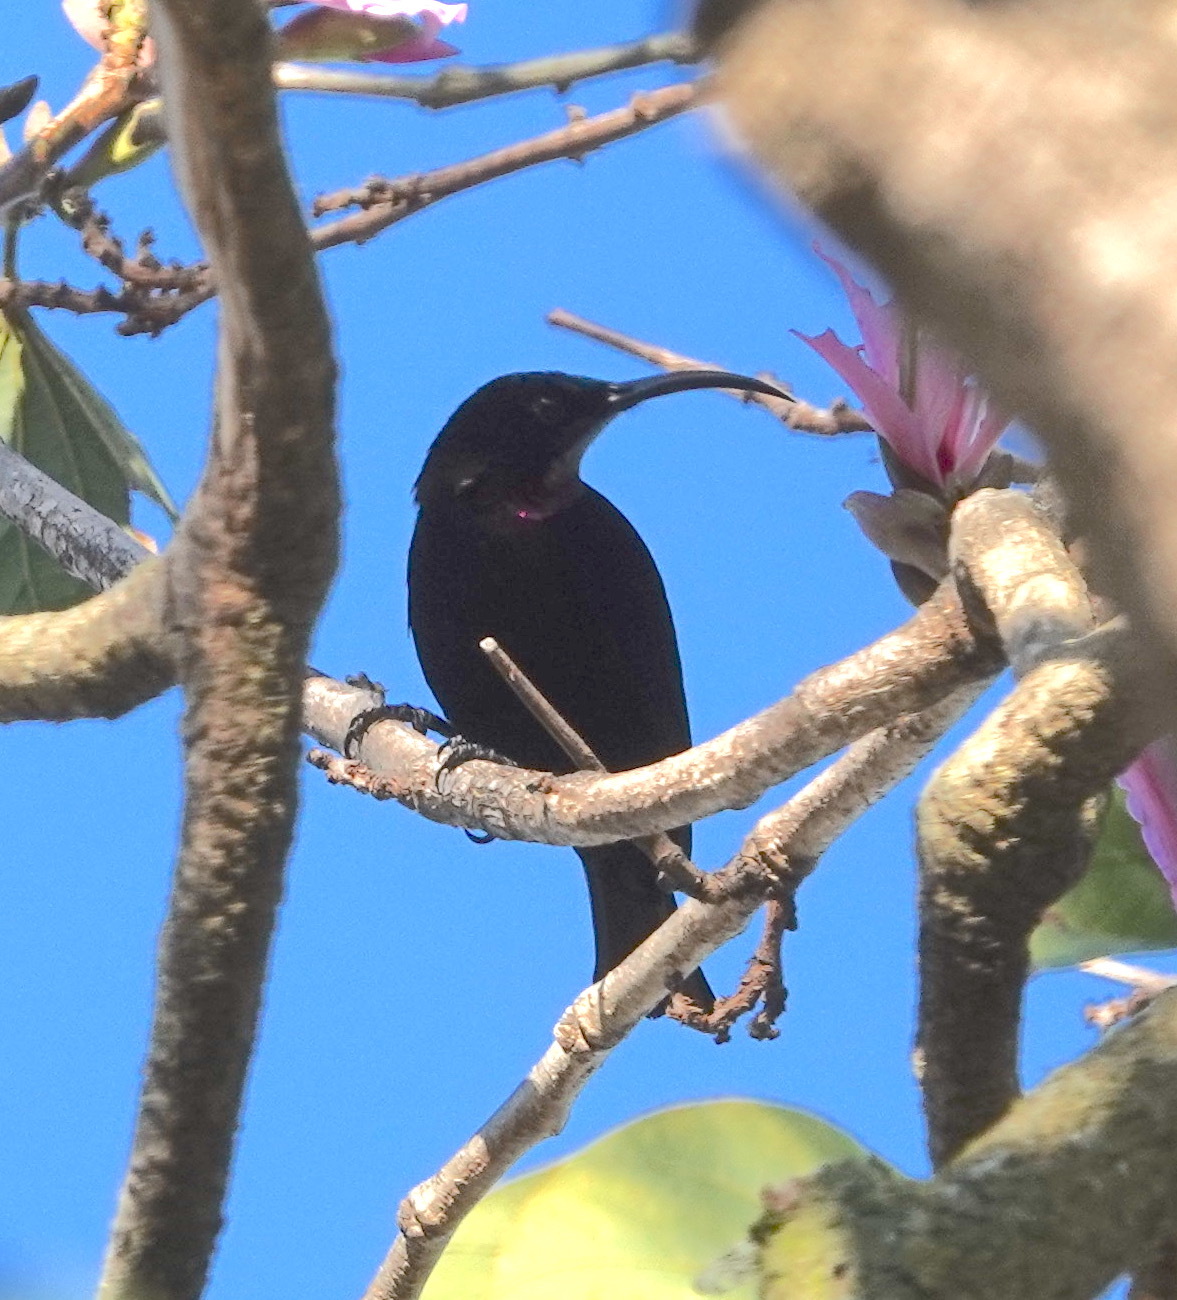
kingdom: Animalia
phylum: Chordata
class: Aves
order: Passeriformes
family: Nectariniidae
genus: Chalcomitra
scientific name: Chalcomitra amethystina
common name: Amethyst sunbird
